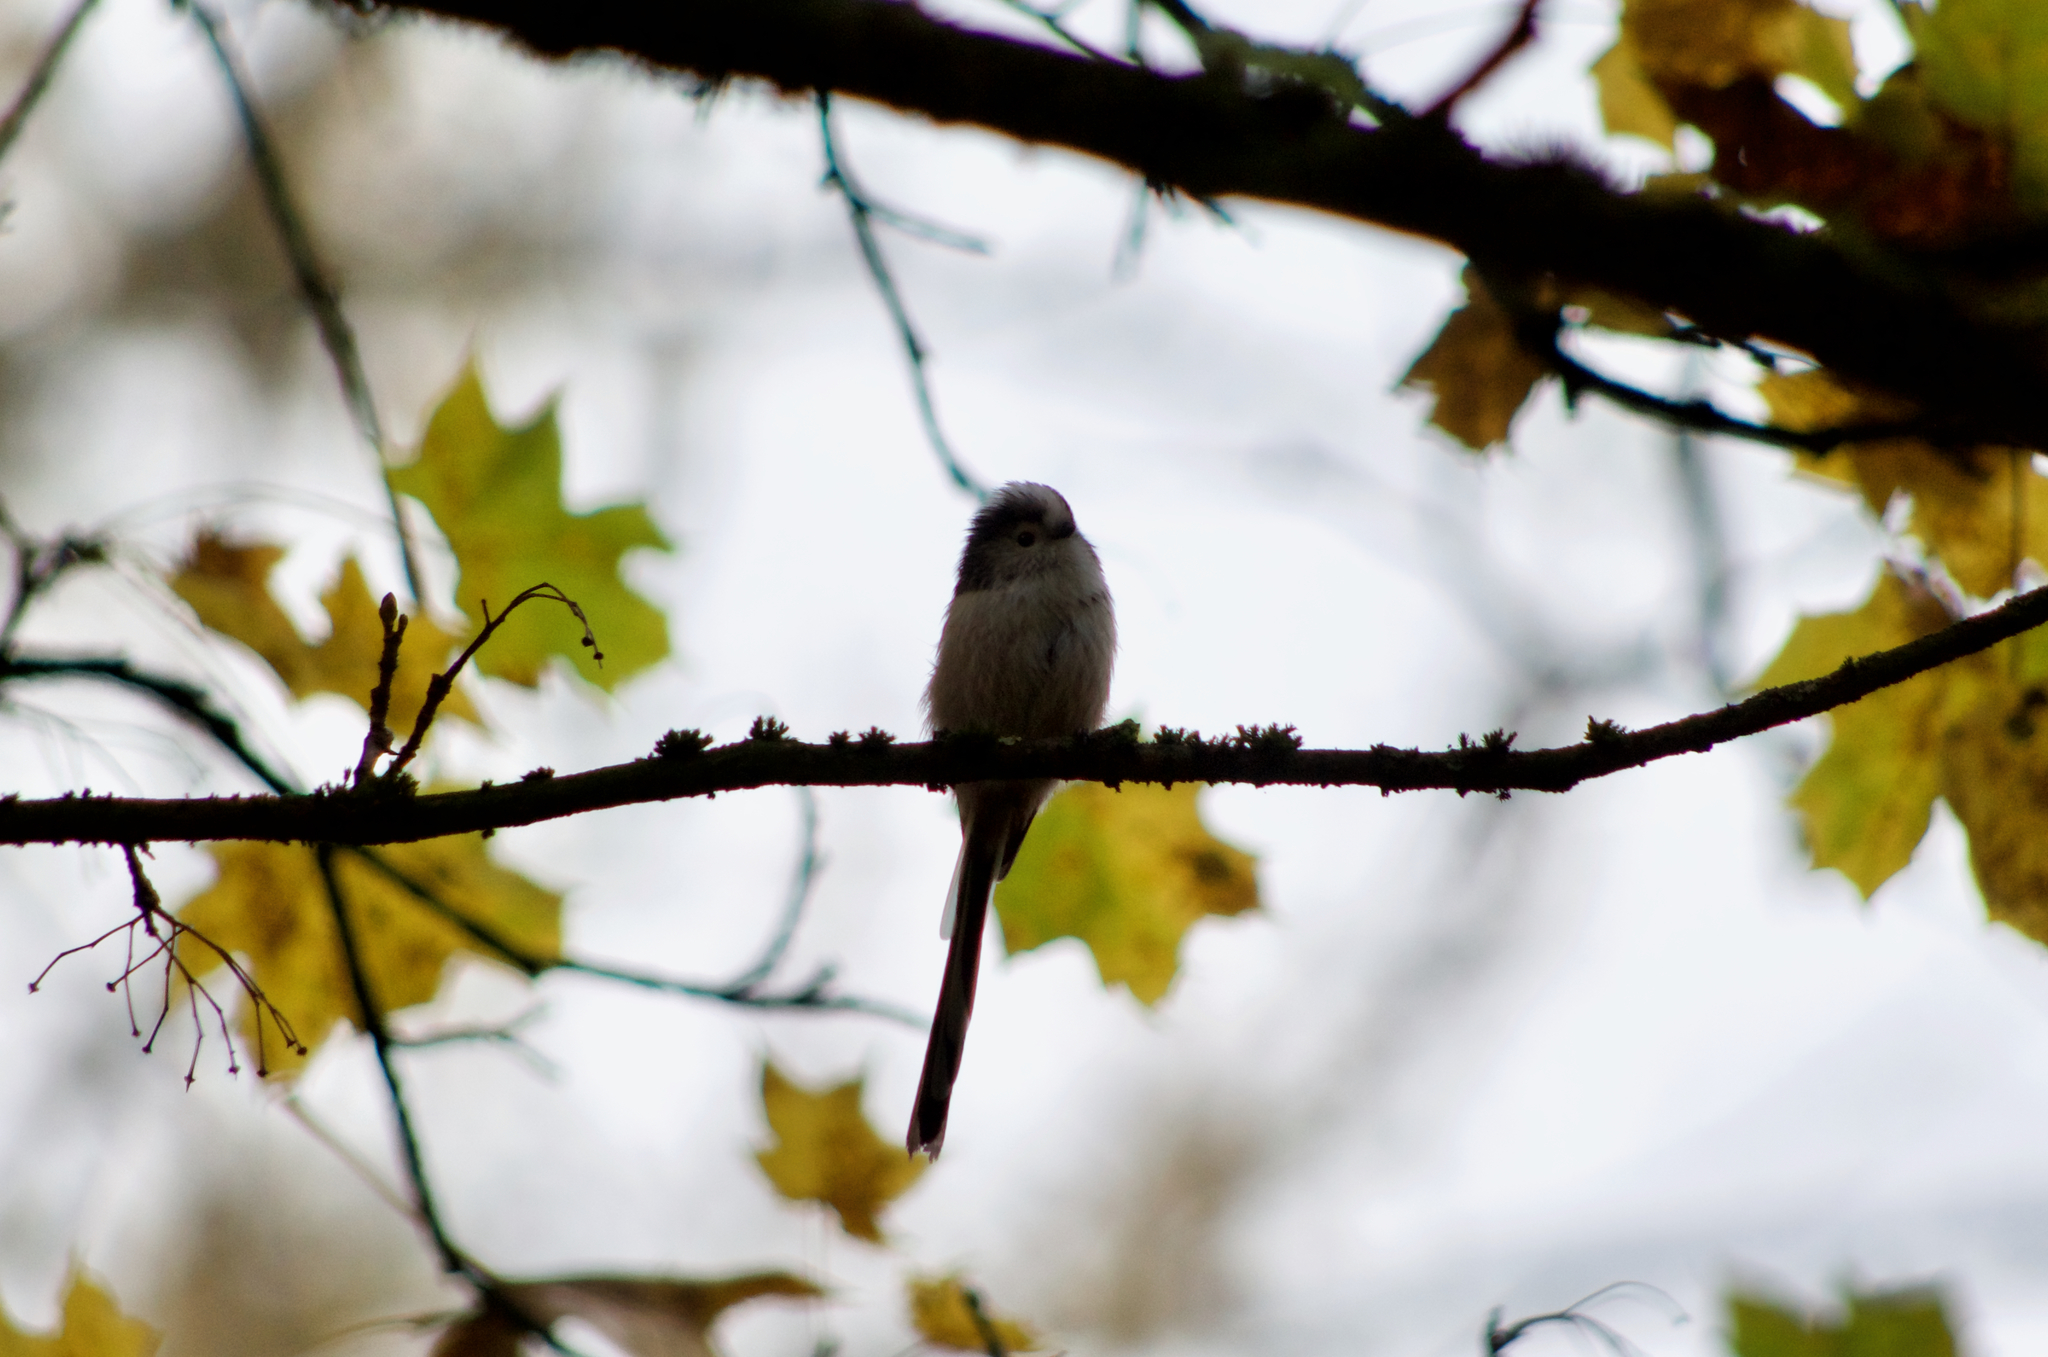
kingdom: Animalia
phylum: Chordata
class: Aves
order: Passeriformes
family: Aegithalidae
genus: Aegithalos
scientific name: Aegithalos caudatus
